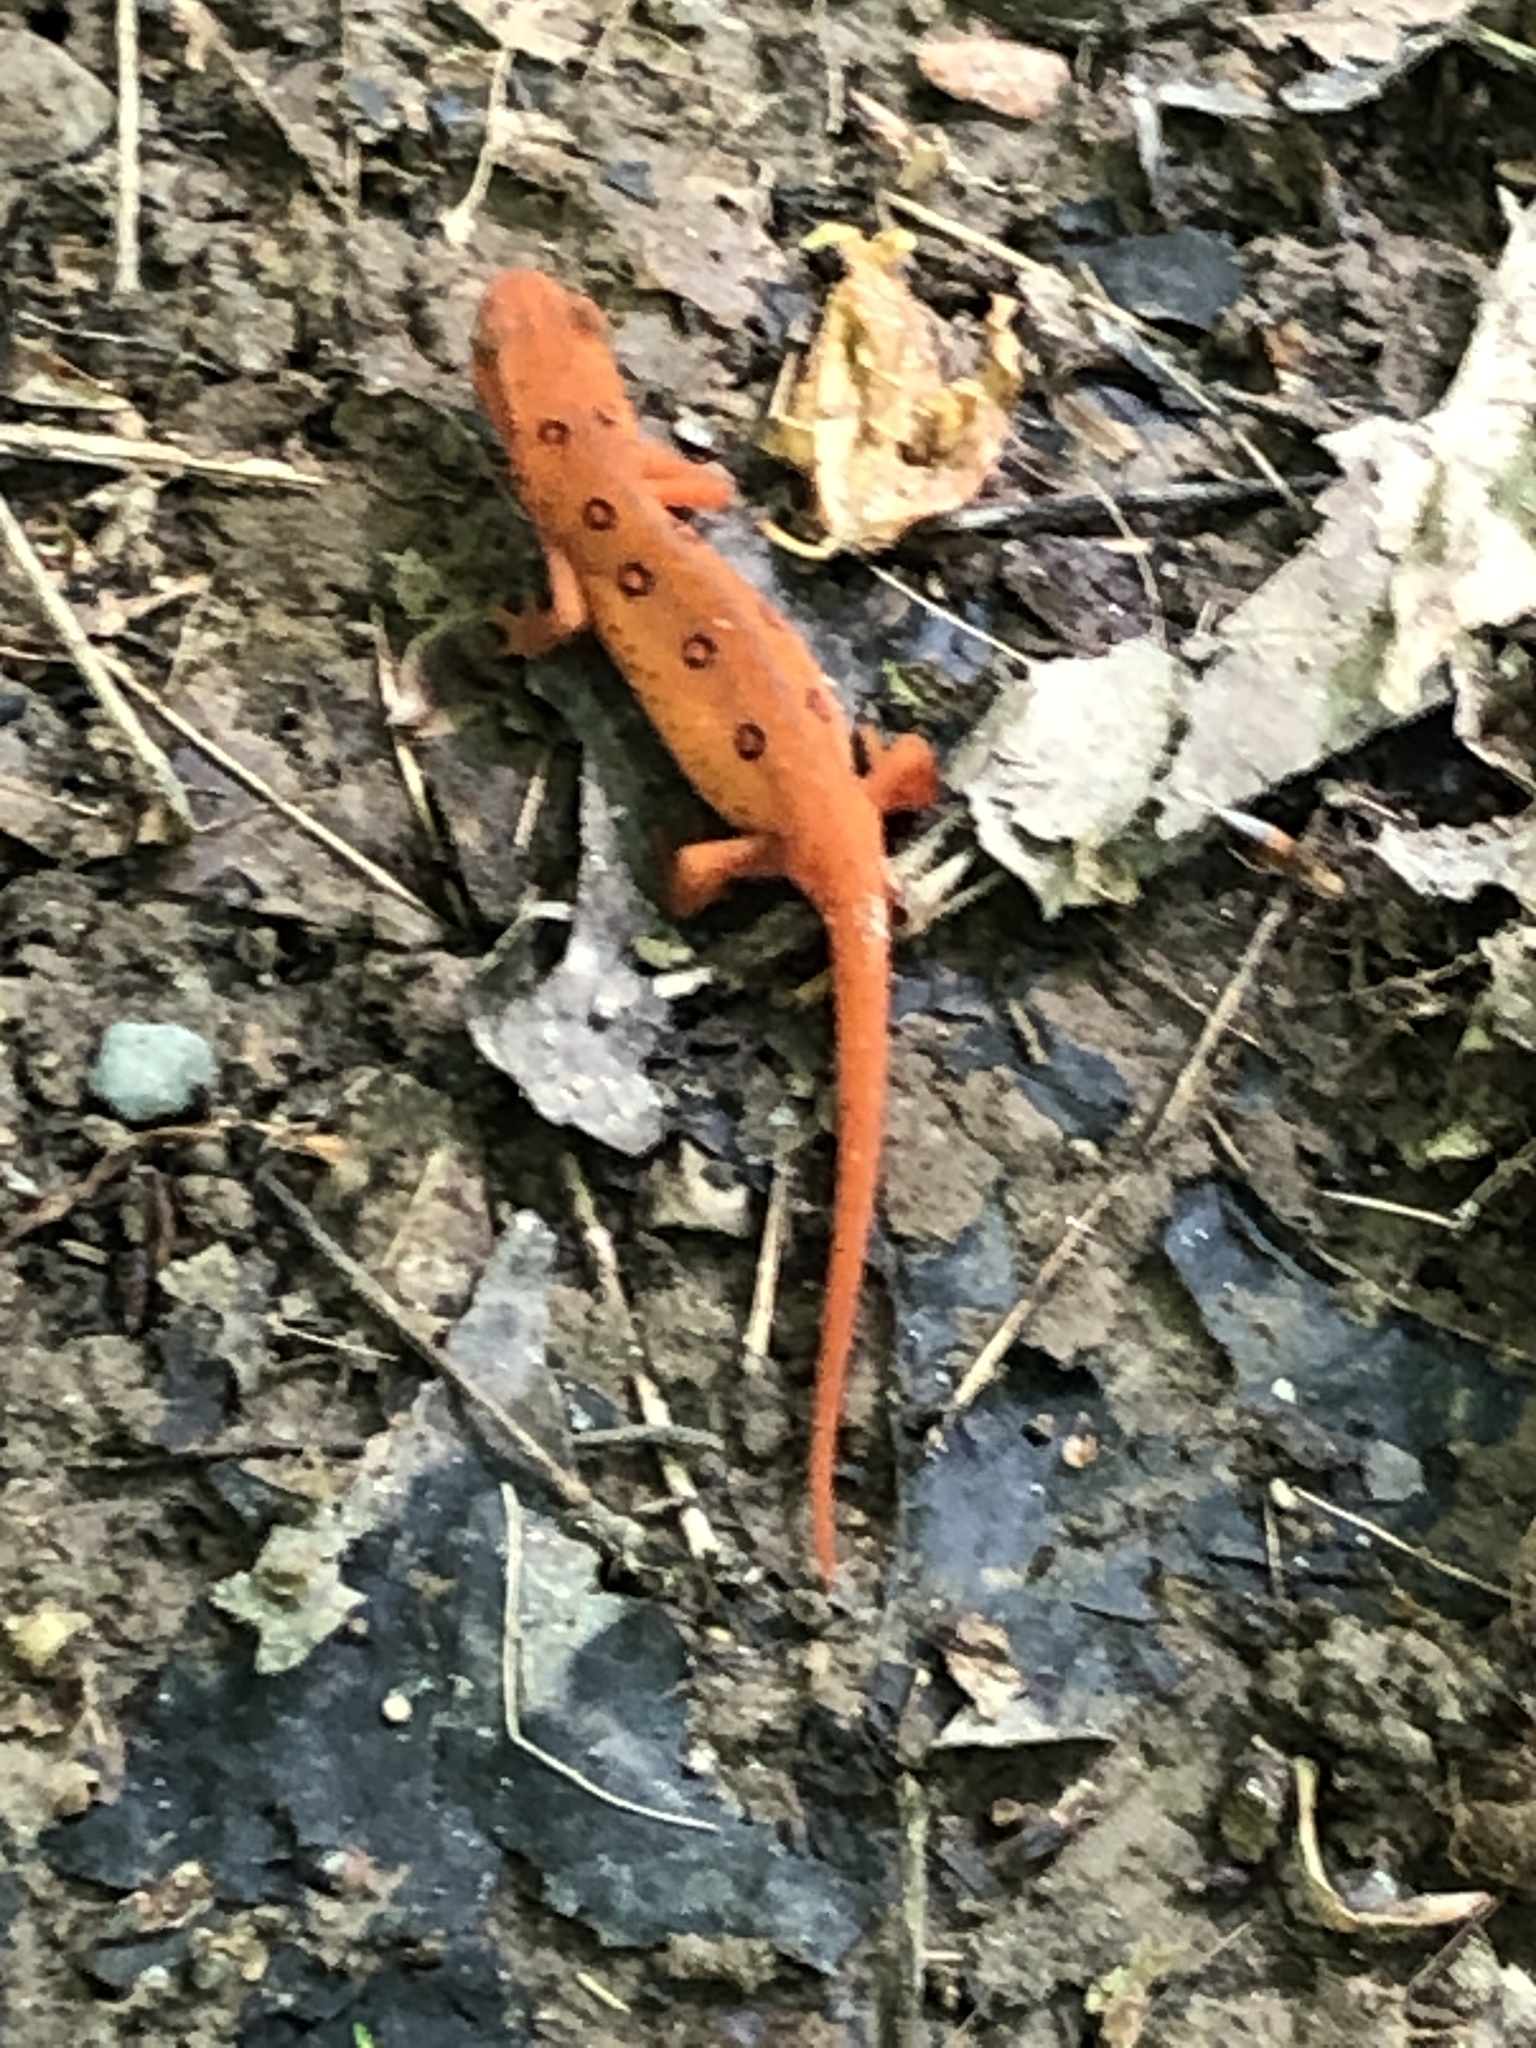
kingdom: Animalia
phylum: Chordata
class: Amphibia
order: Caudata
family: Salamandridae
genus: Notophthalmus
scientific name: Notophthalmus viridescens
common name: Eastern newt
